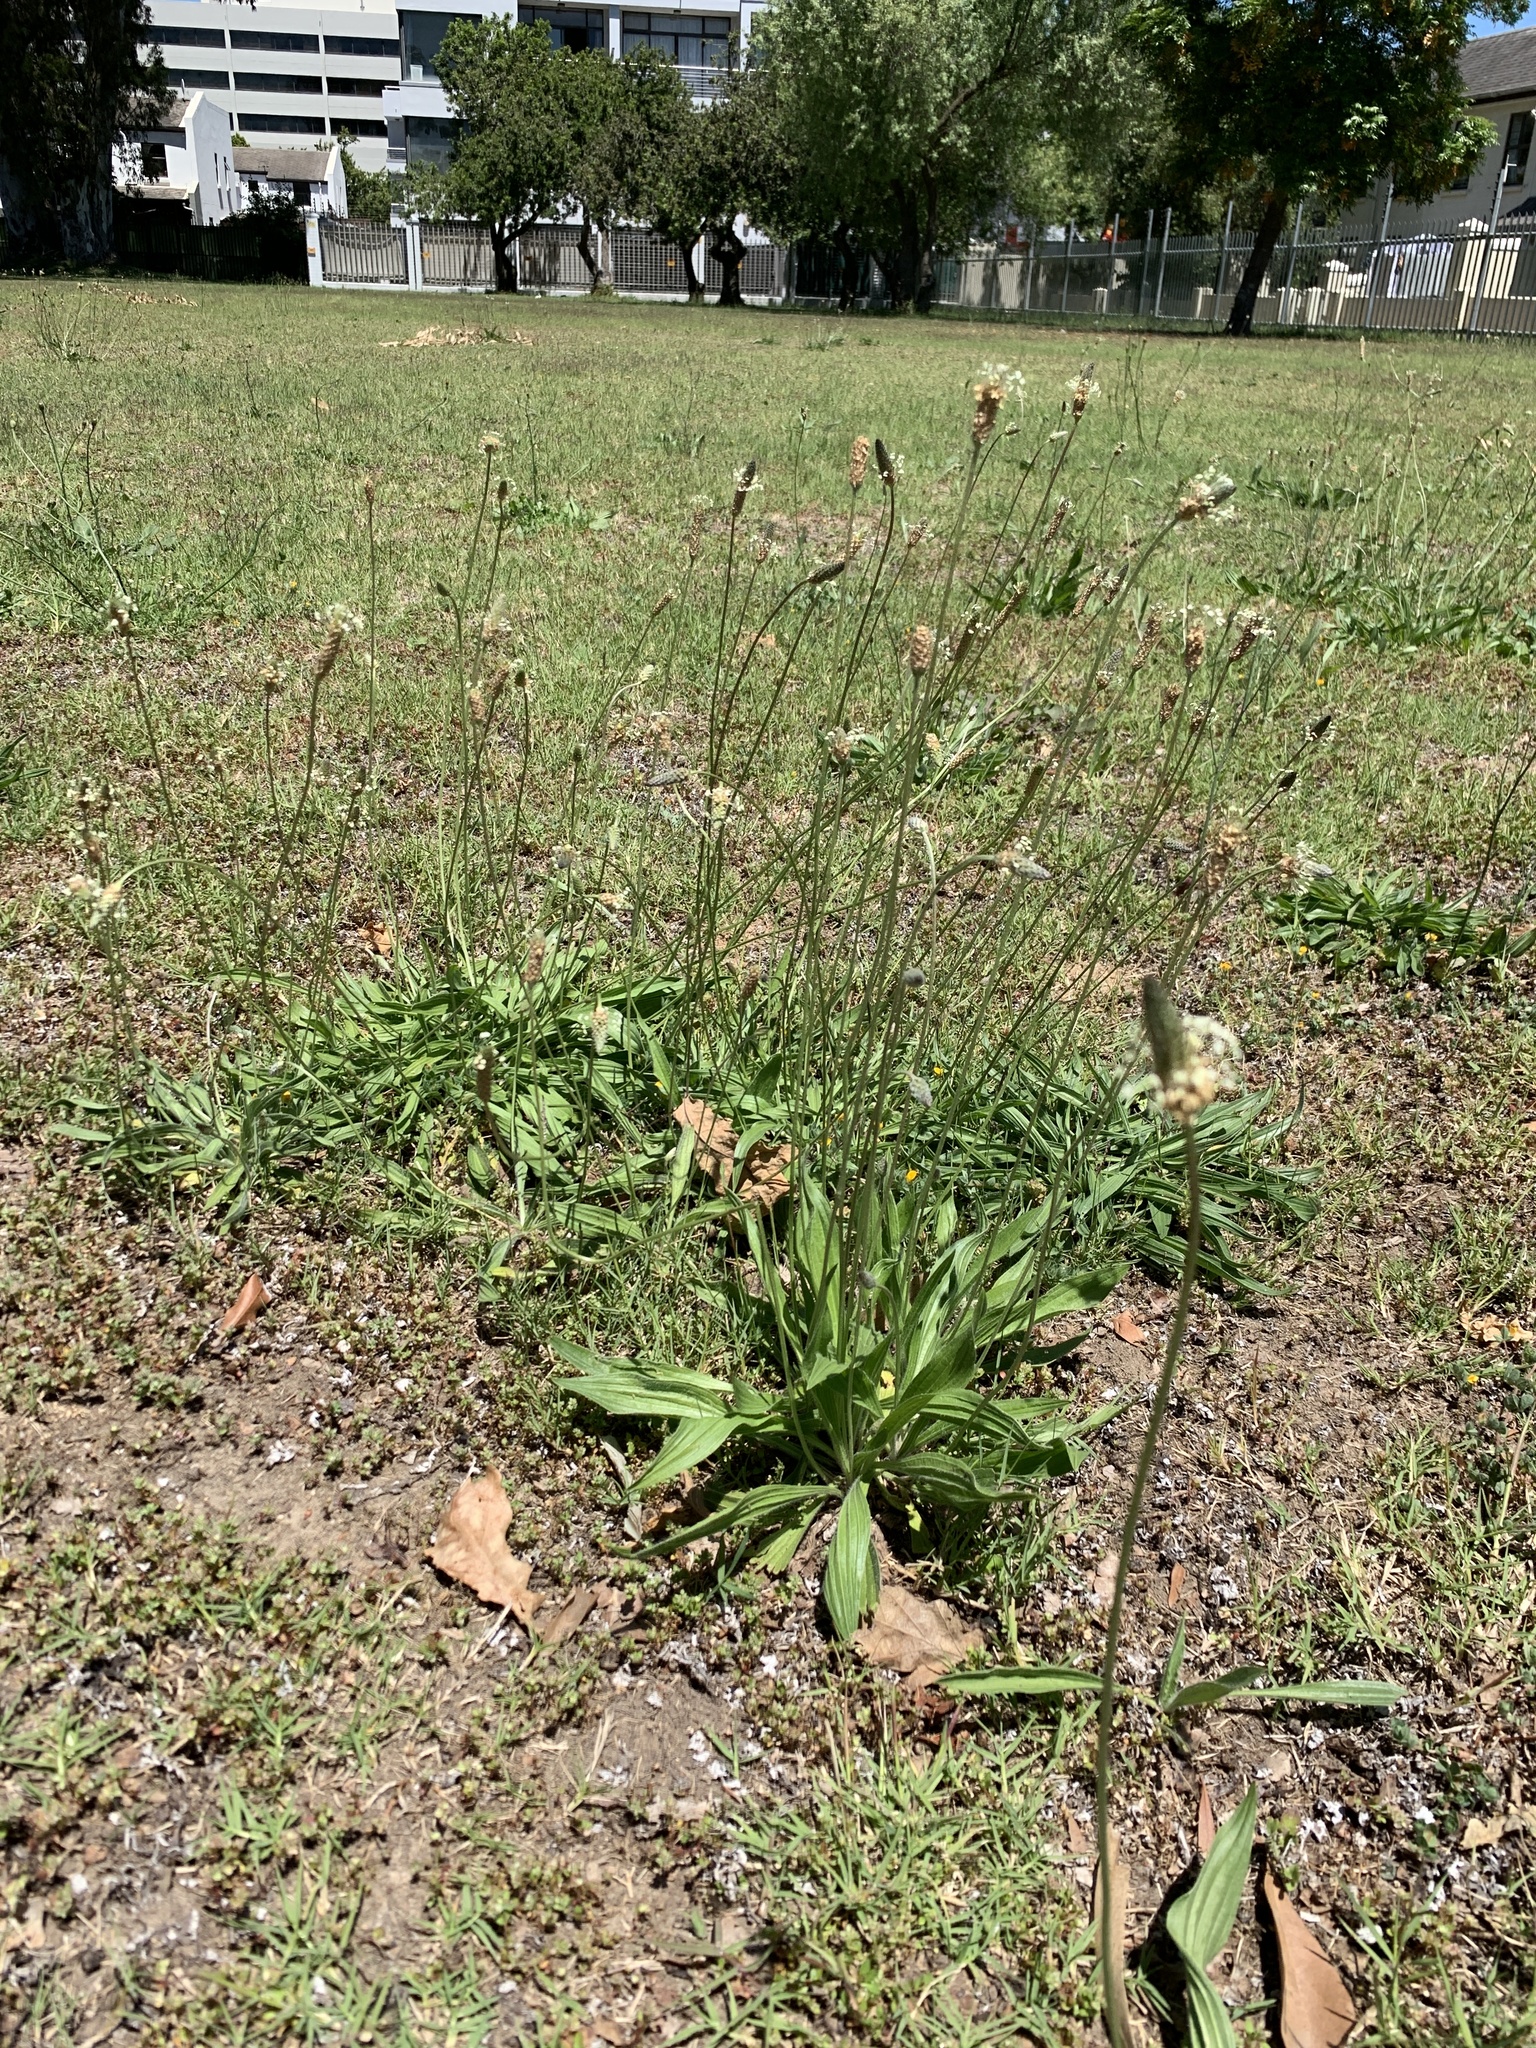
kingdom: Plantae
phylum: Tracheophyta
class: Magnoliopsida
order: Lamiales
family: Plantaginaceae
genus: Plantago
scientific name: Plantago lanceolata
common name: Ribwort plantain
